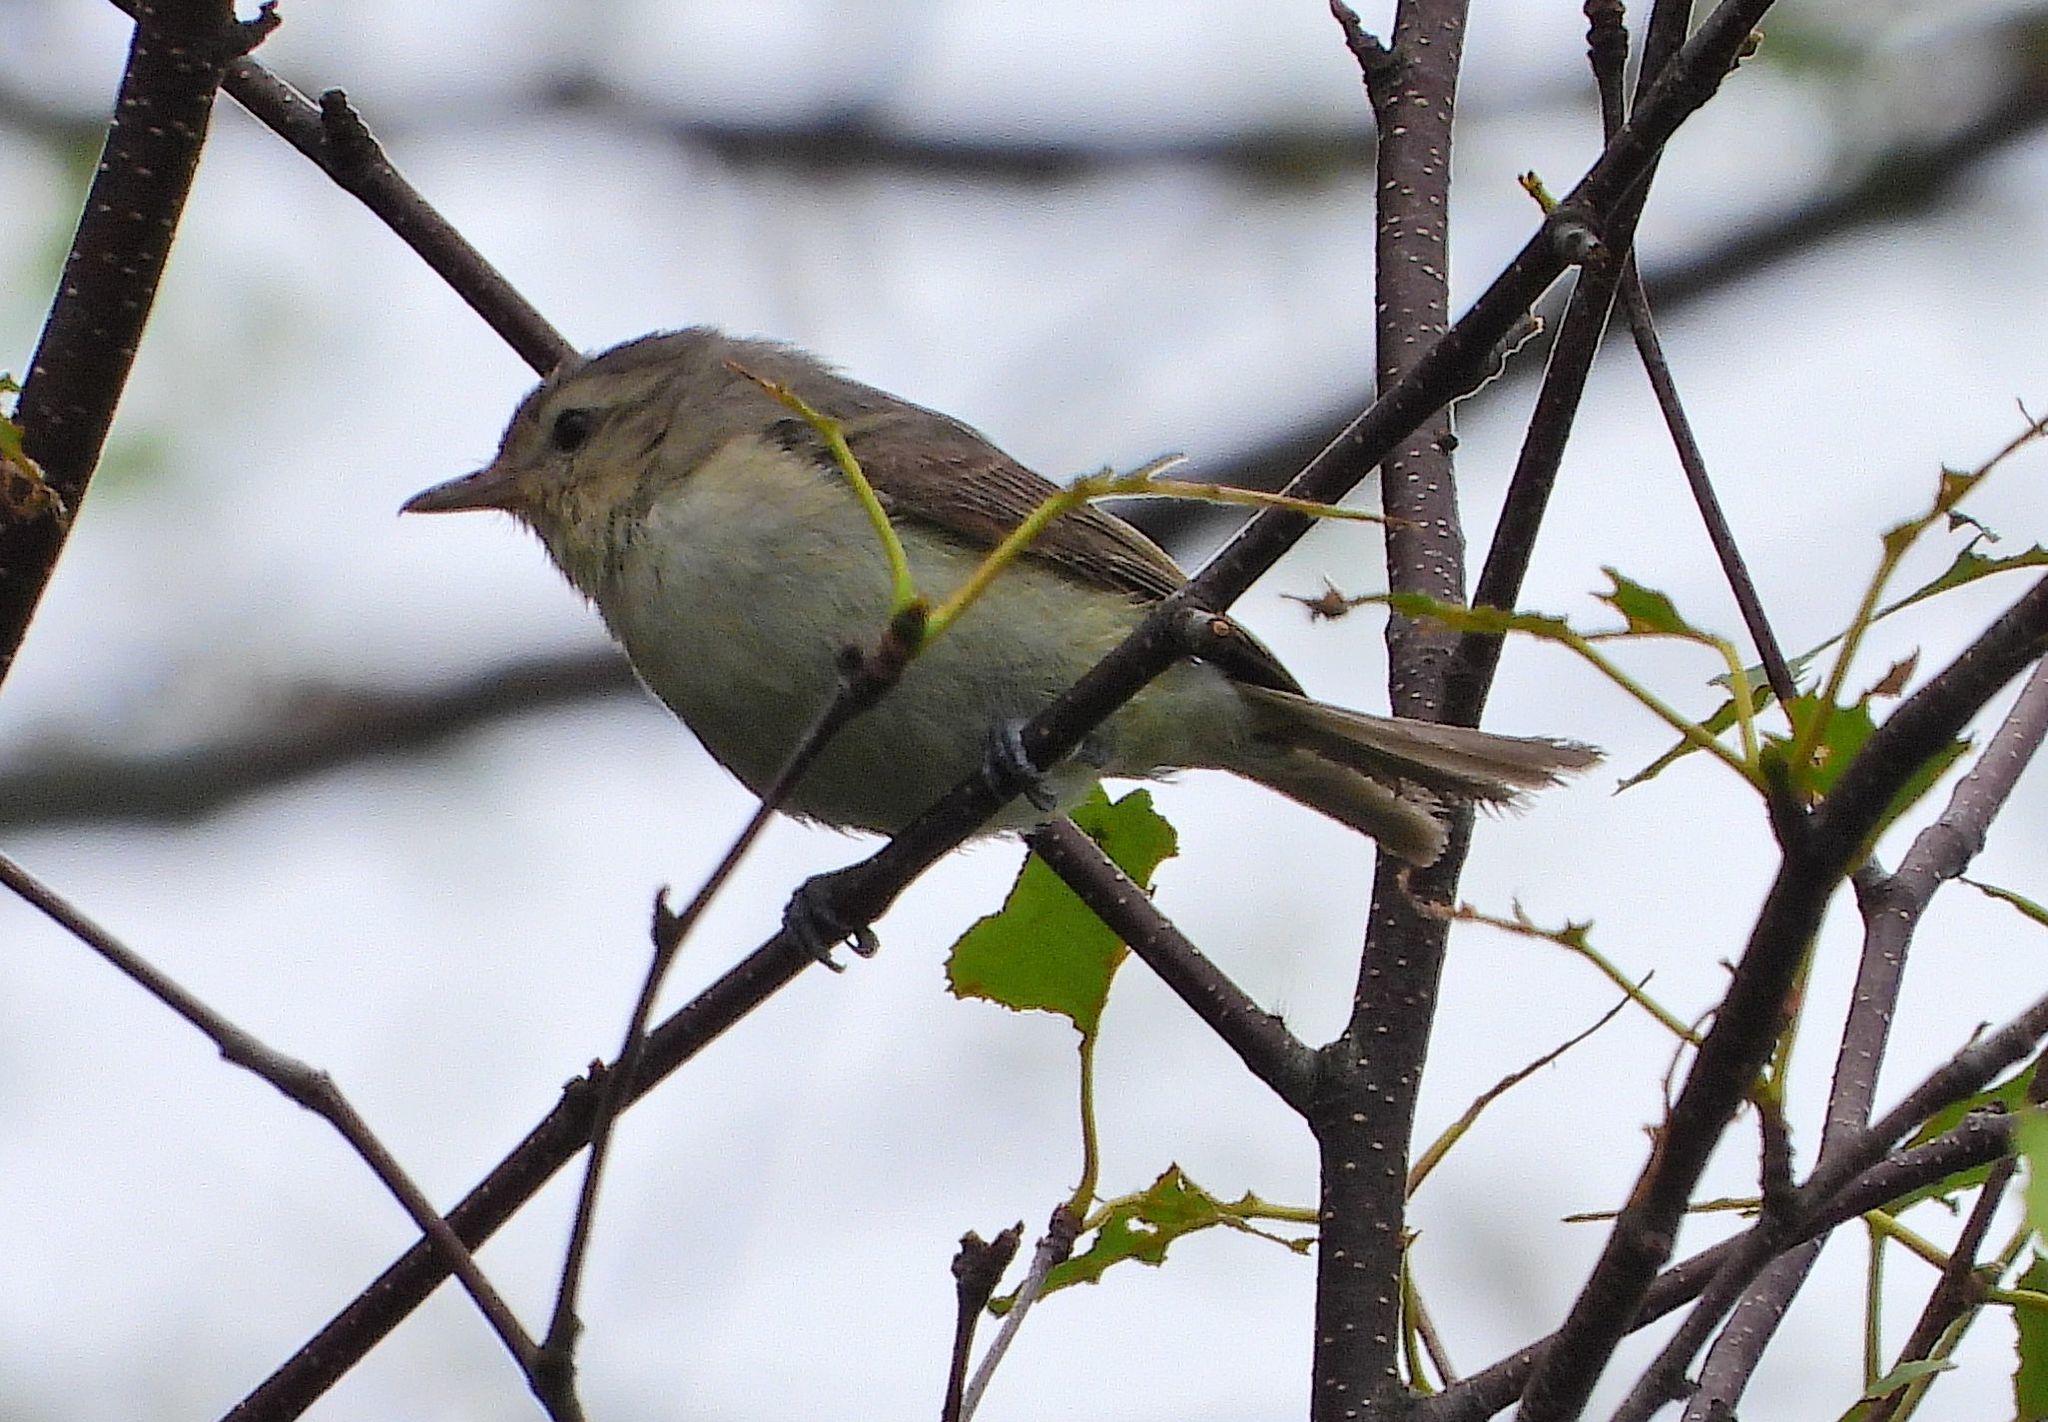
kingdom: Animalia
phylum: Chordata
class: Aves
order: Passeriformes
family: Vireonidae
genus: Vireo
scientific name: Vireo gilvus
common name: Warbling vireo
